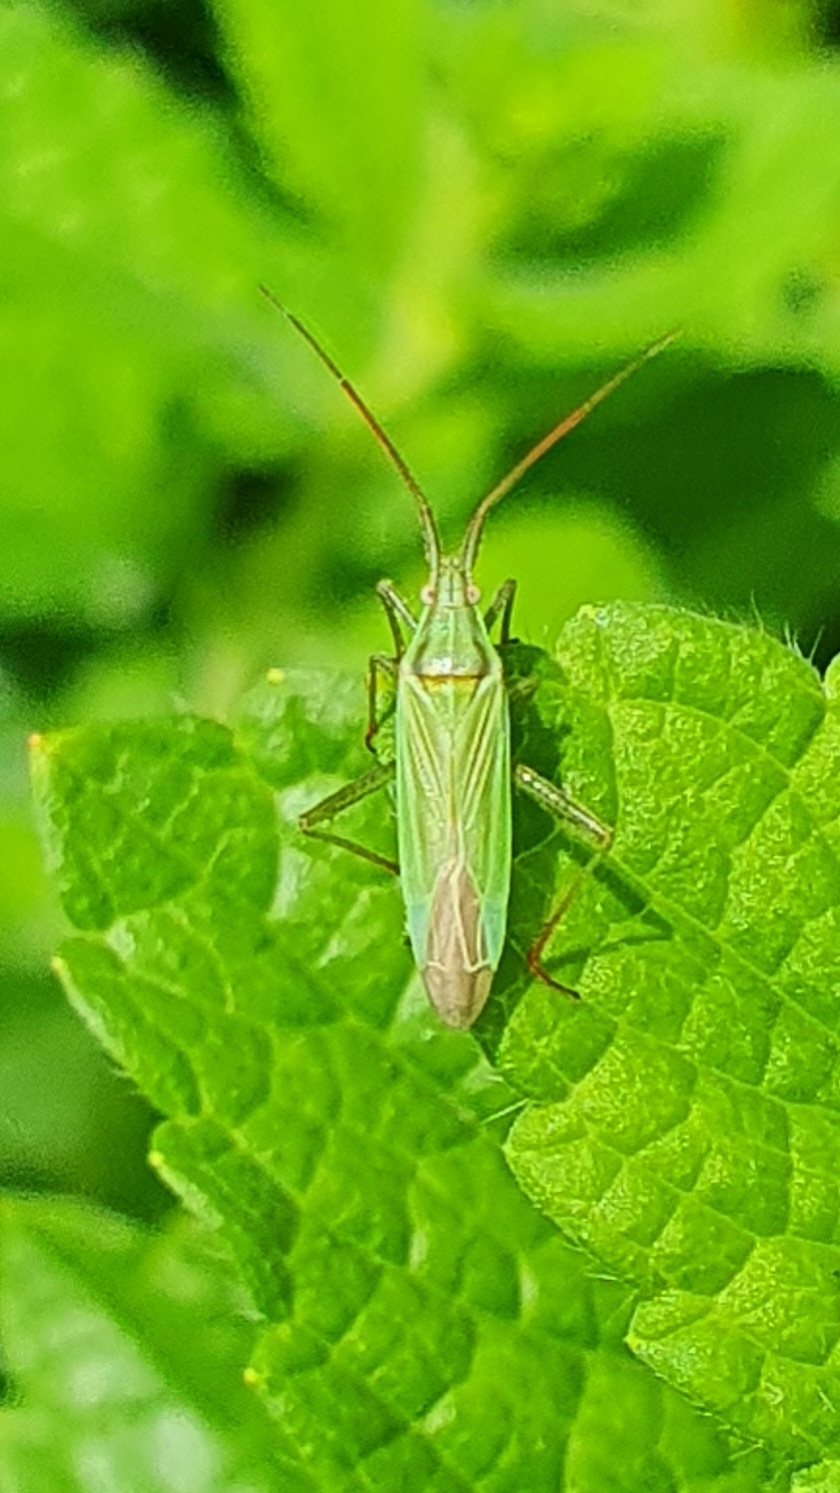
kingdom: Animalia
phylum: Arthropoda
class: Insecta
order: Hemiptera
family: Miridae
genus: Stenodema
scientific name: Stenodema calcarata
